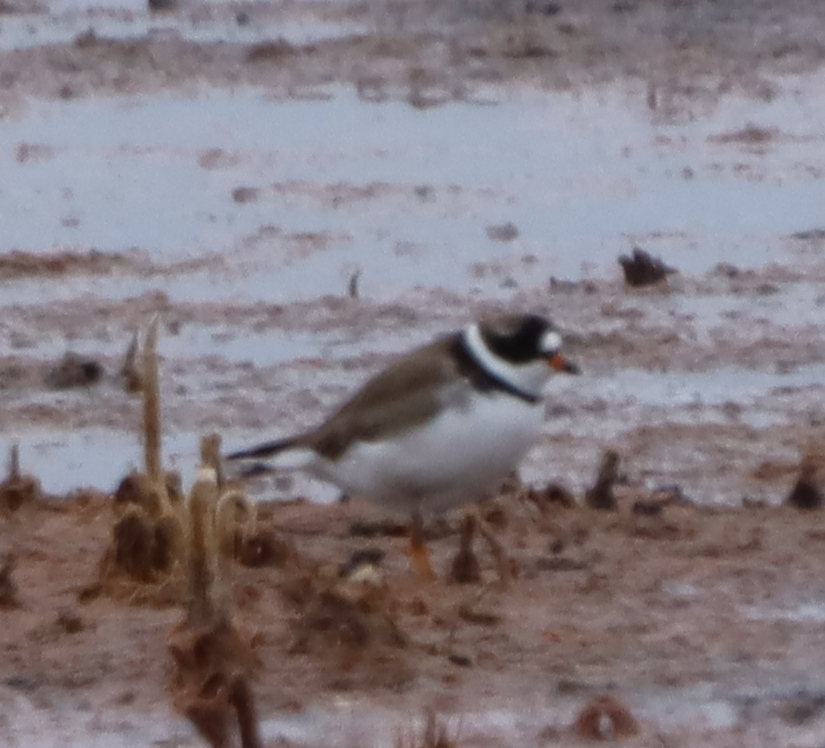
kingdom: Animalia
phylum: Chordata
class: Aves
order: Charadriiformes
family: Charadriidae
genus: Charadrius
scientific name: Charadrius semipalmatus
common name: Semipalmated plover
